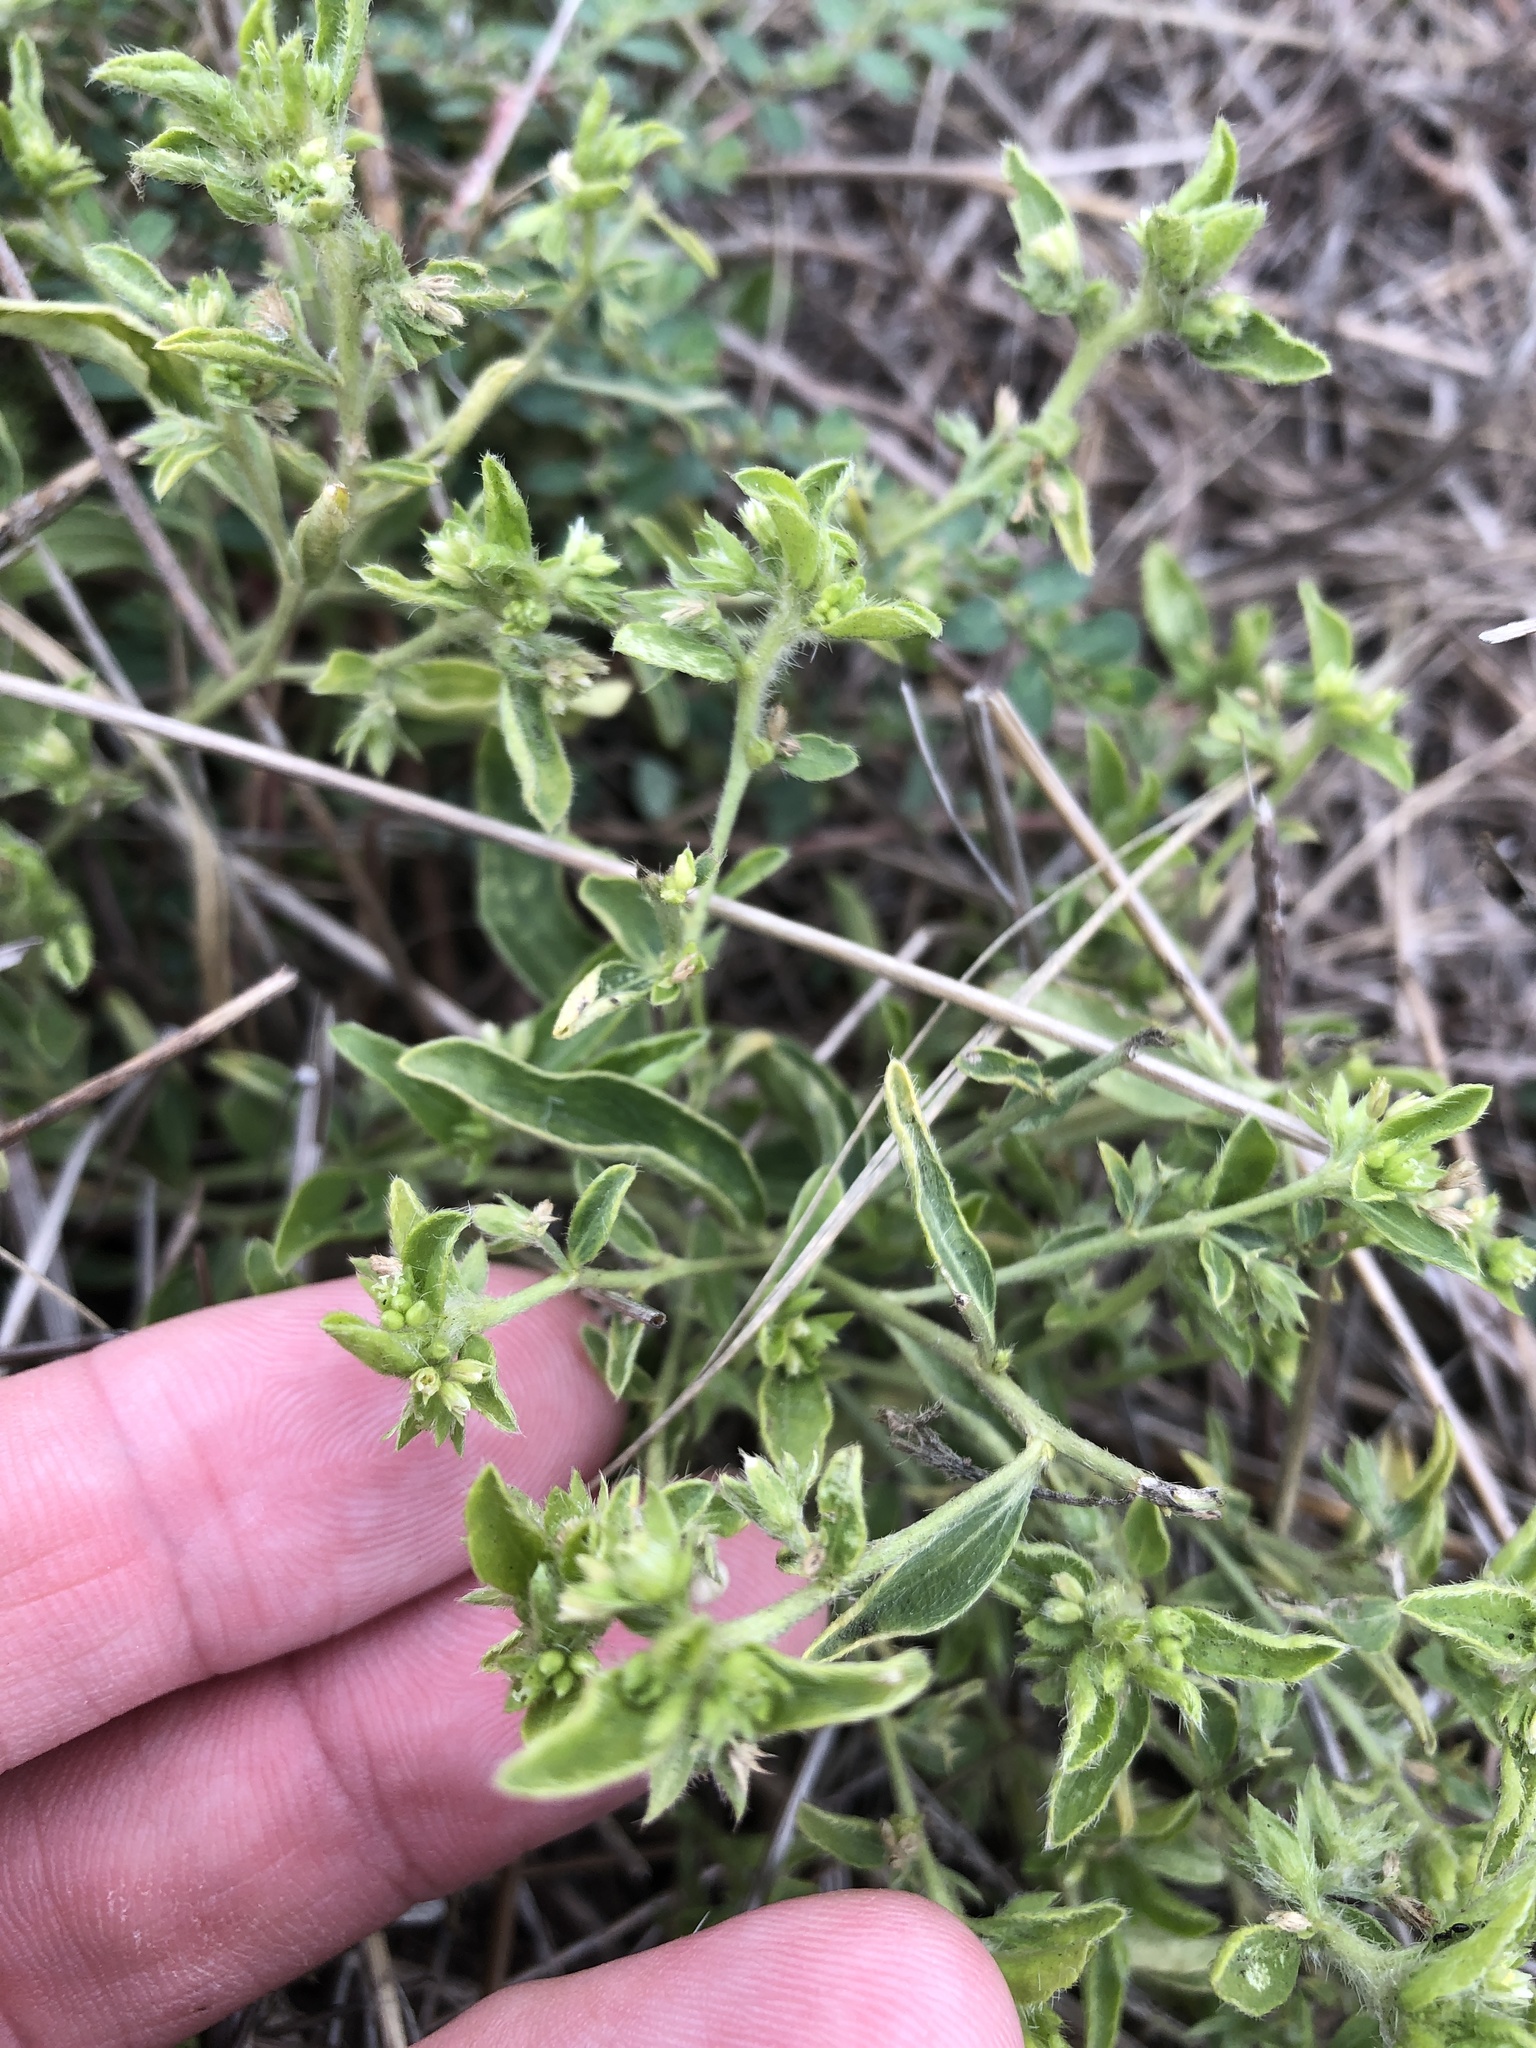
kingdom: Plantae
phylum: Tracheophyta
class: Magnoliopsida
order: Malpighiales
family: Euphorbiaceae
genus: Ditaxis
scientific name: Ditaxis humilis
